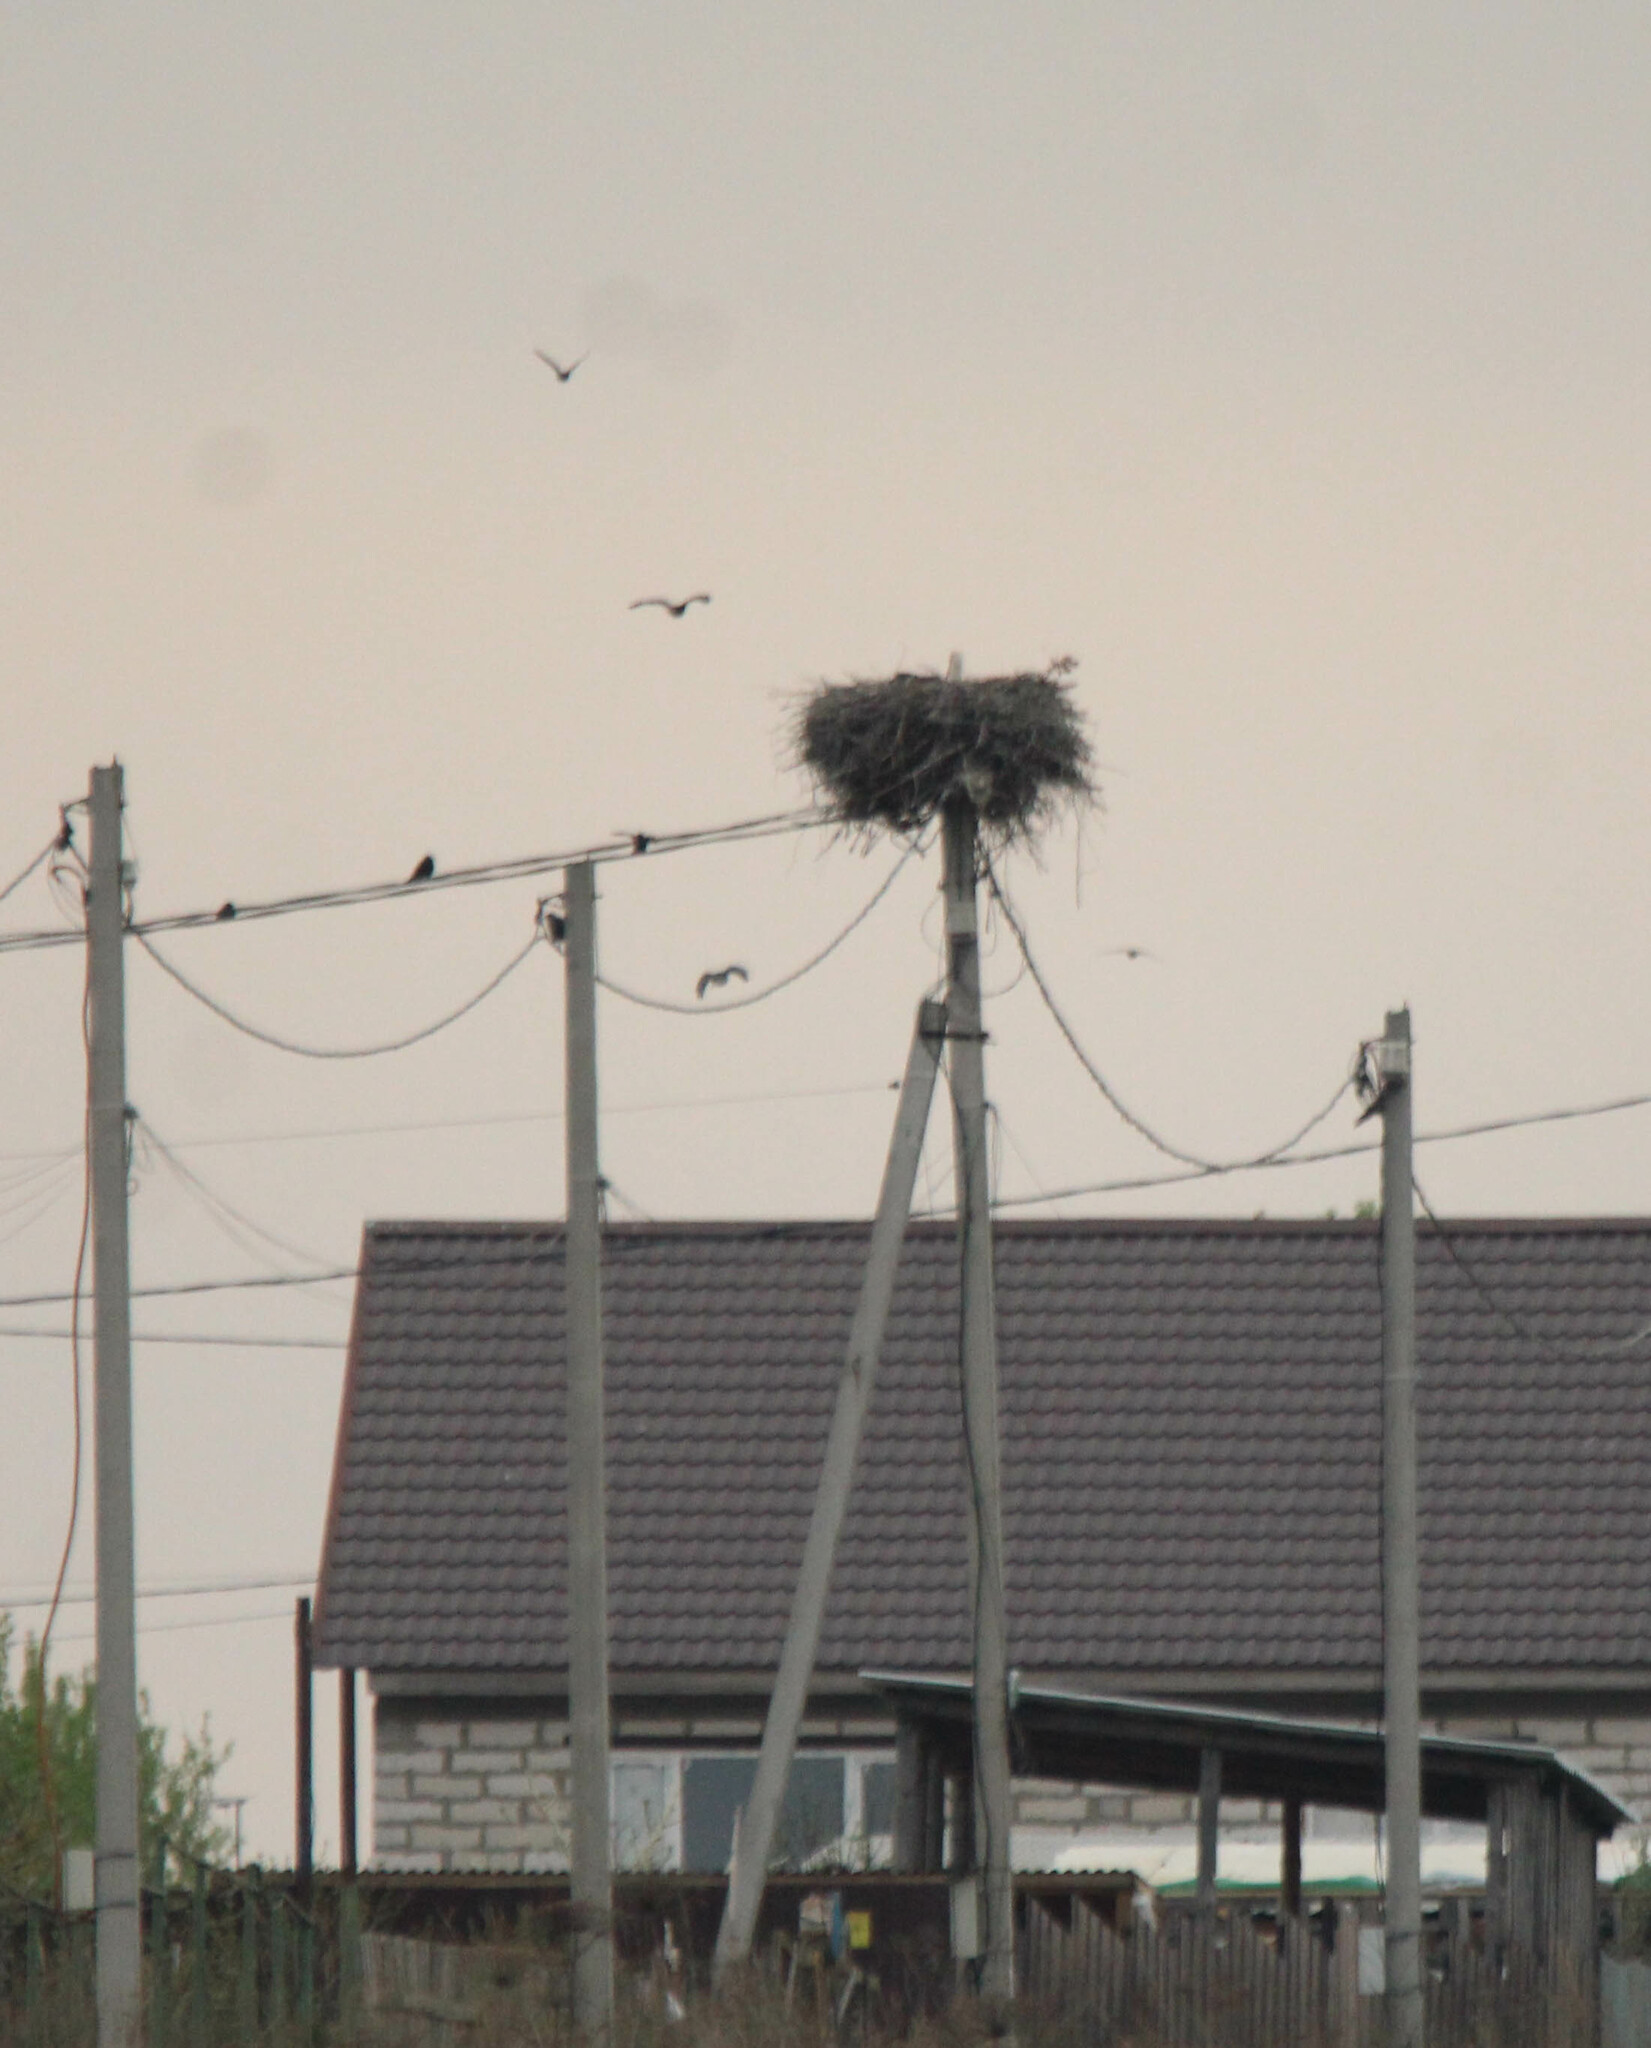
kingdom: Animalia
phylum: Chordata
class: Aves
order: Ciconiiformes
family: Ciconiidae
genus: Ciconia
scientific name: Ciconia ciconia
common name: White stork
